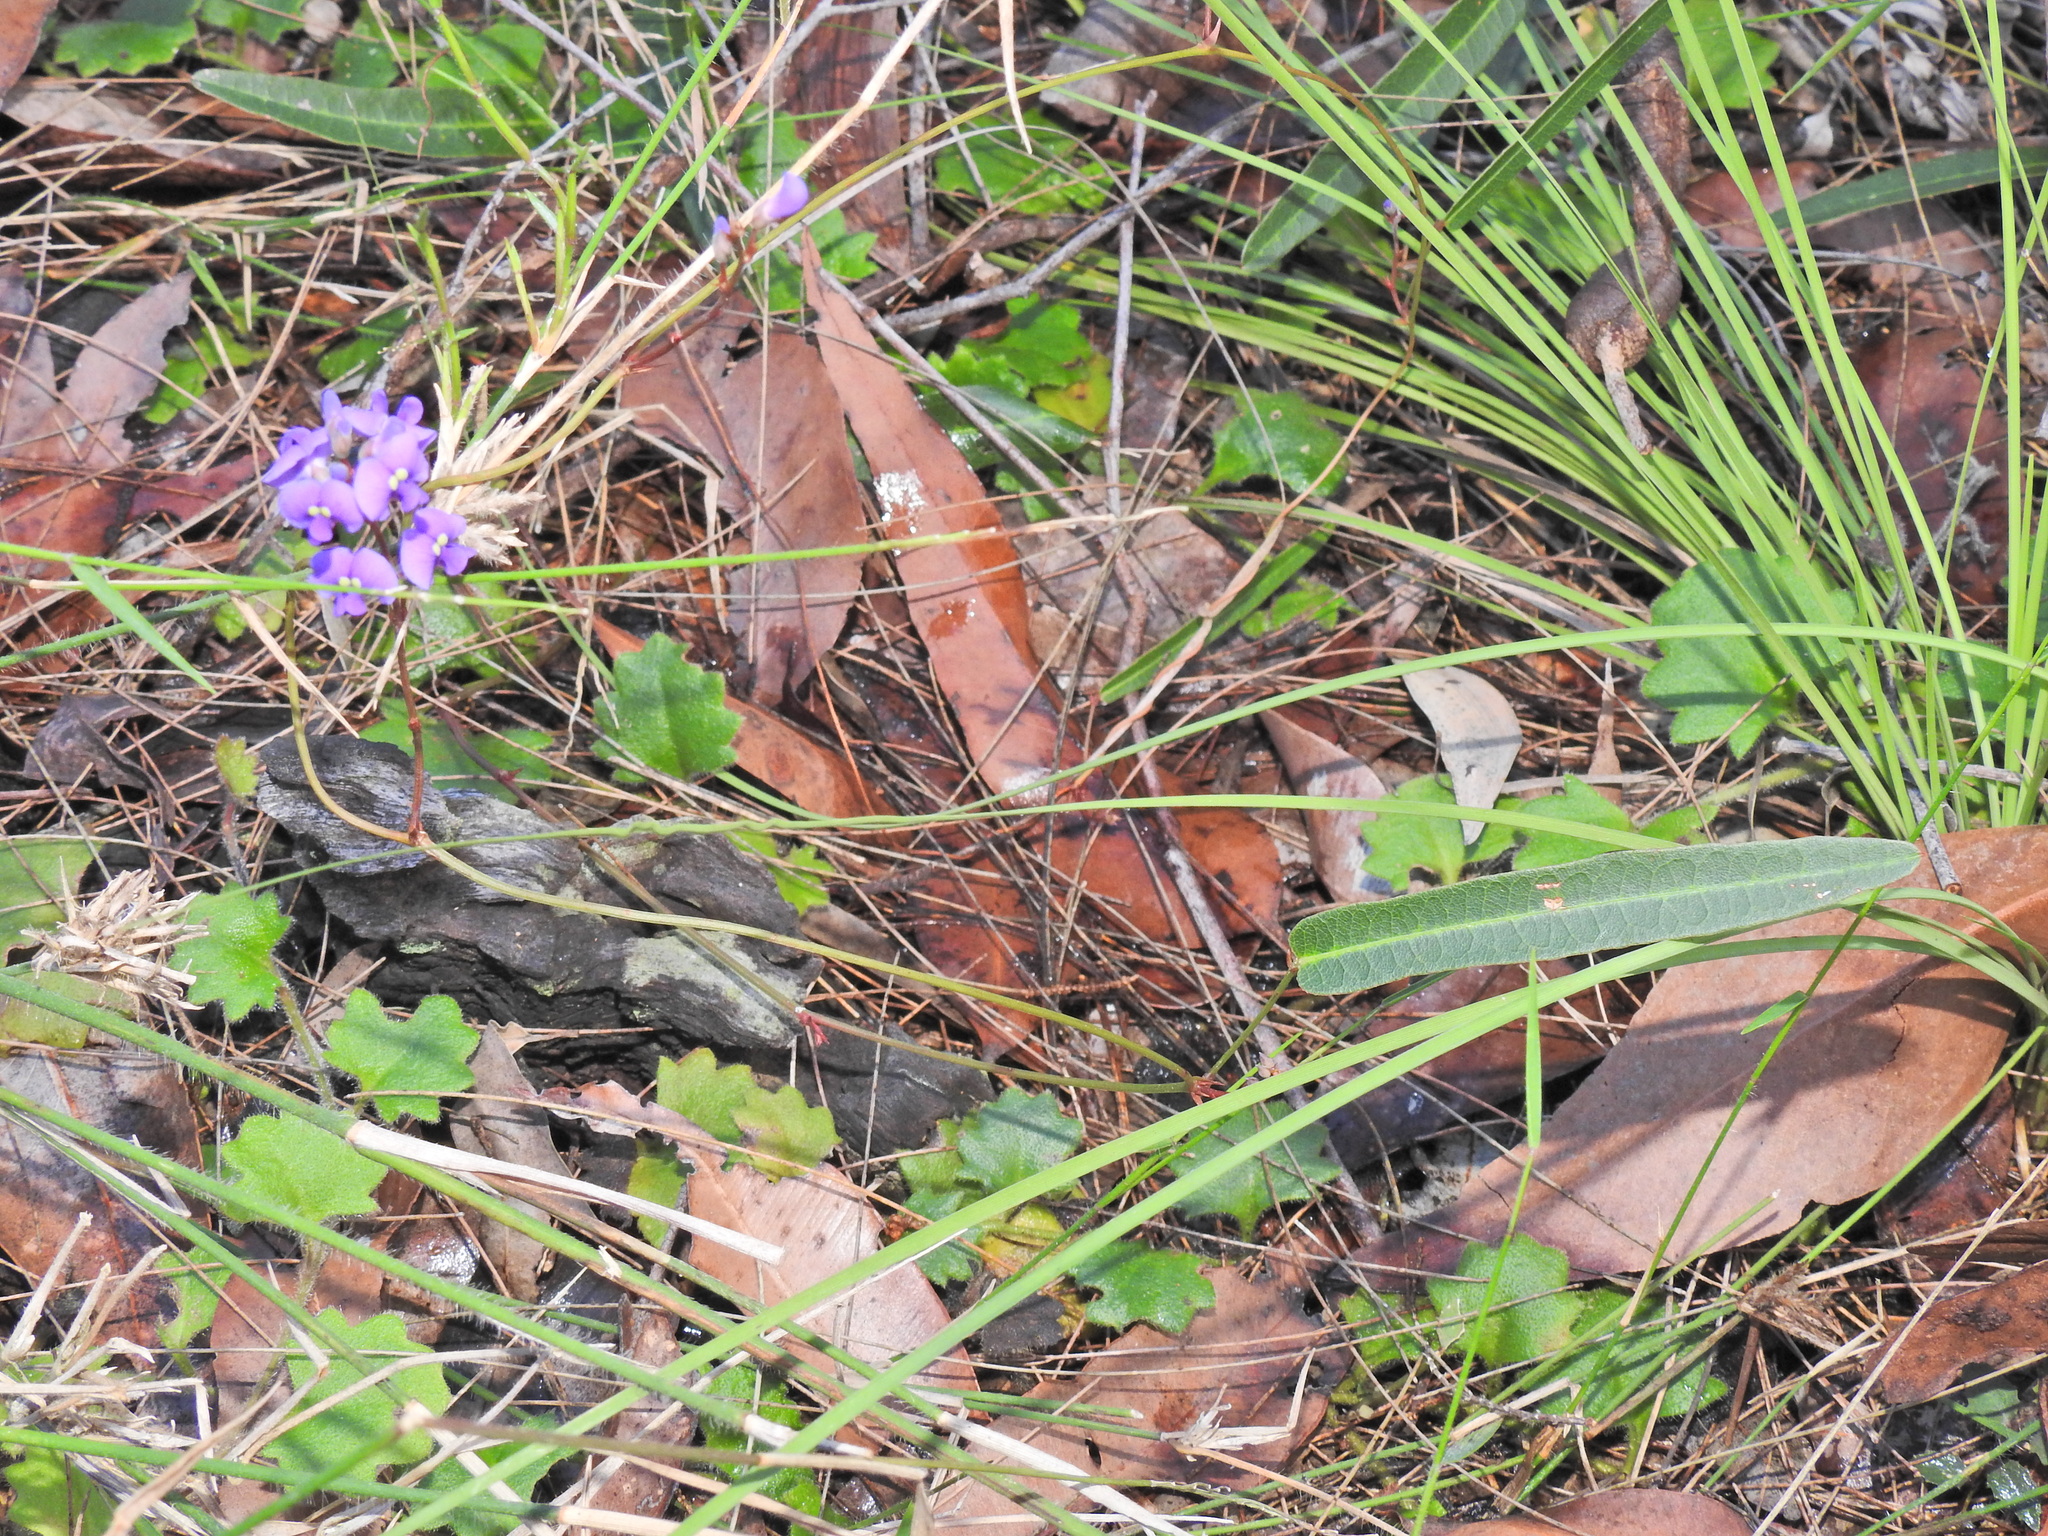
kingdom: Plantae
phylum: Tracheophyta
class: Magnoliopsida
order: Fabales
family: Fabaceae
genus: Hardenbergia
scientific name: Hardenbergia violacea
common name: Coral-pea
